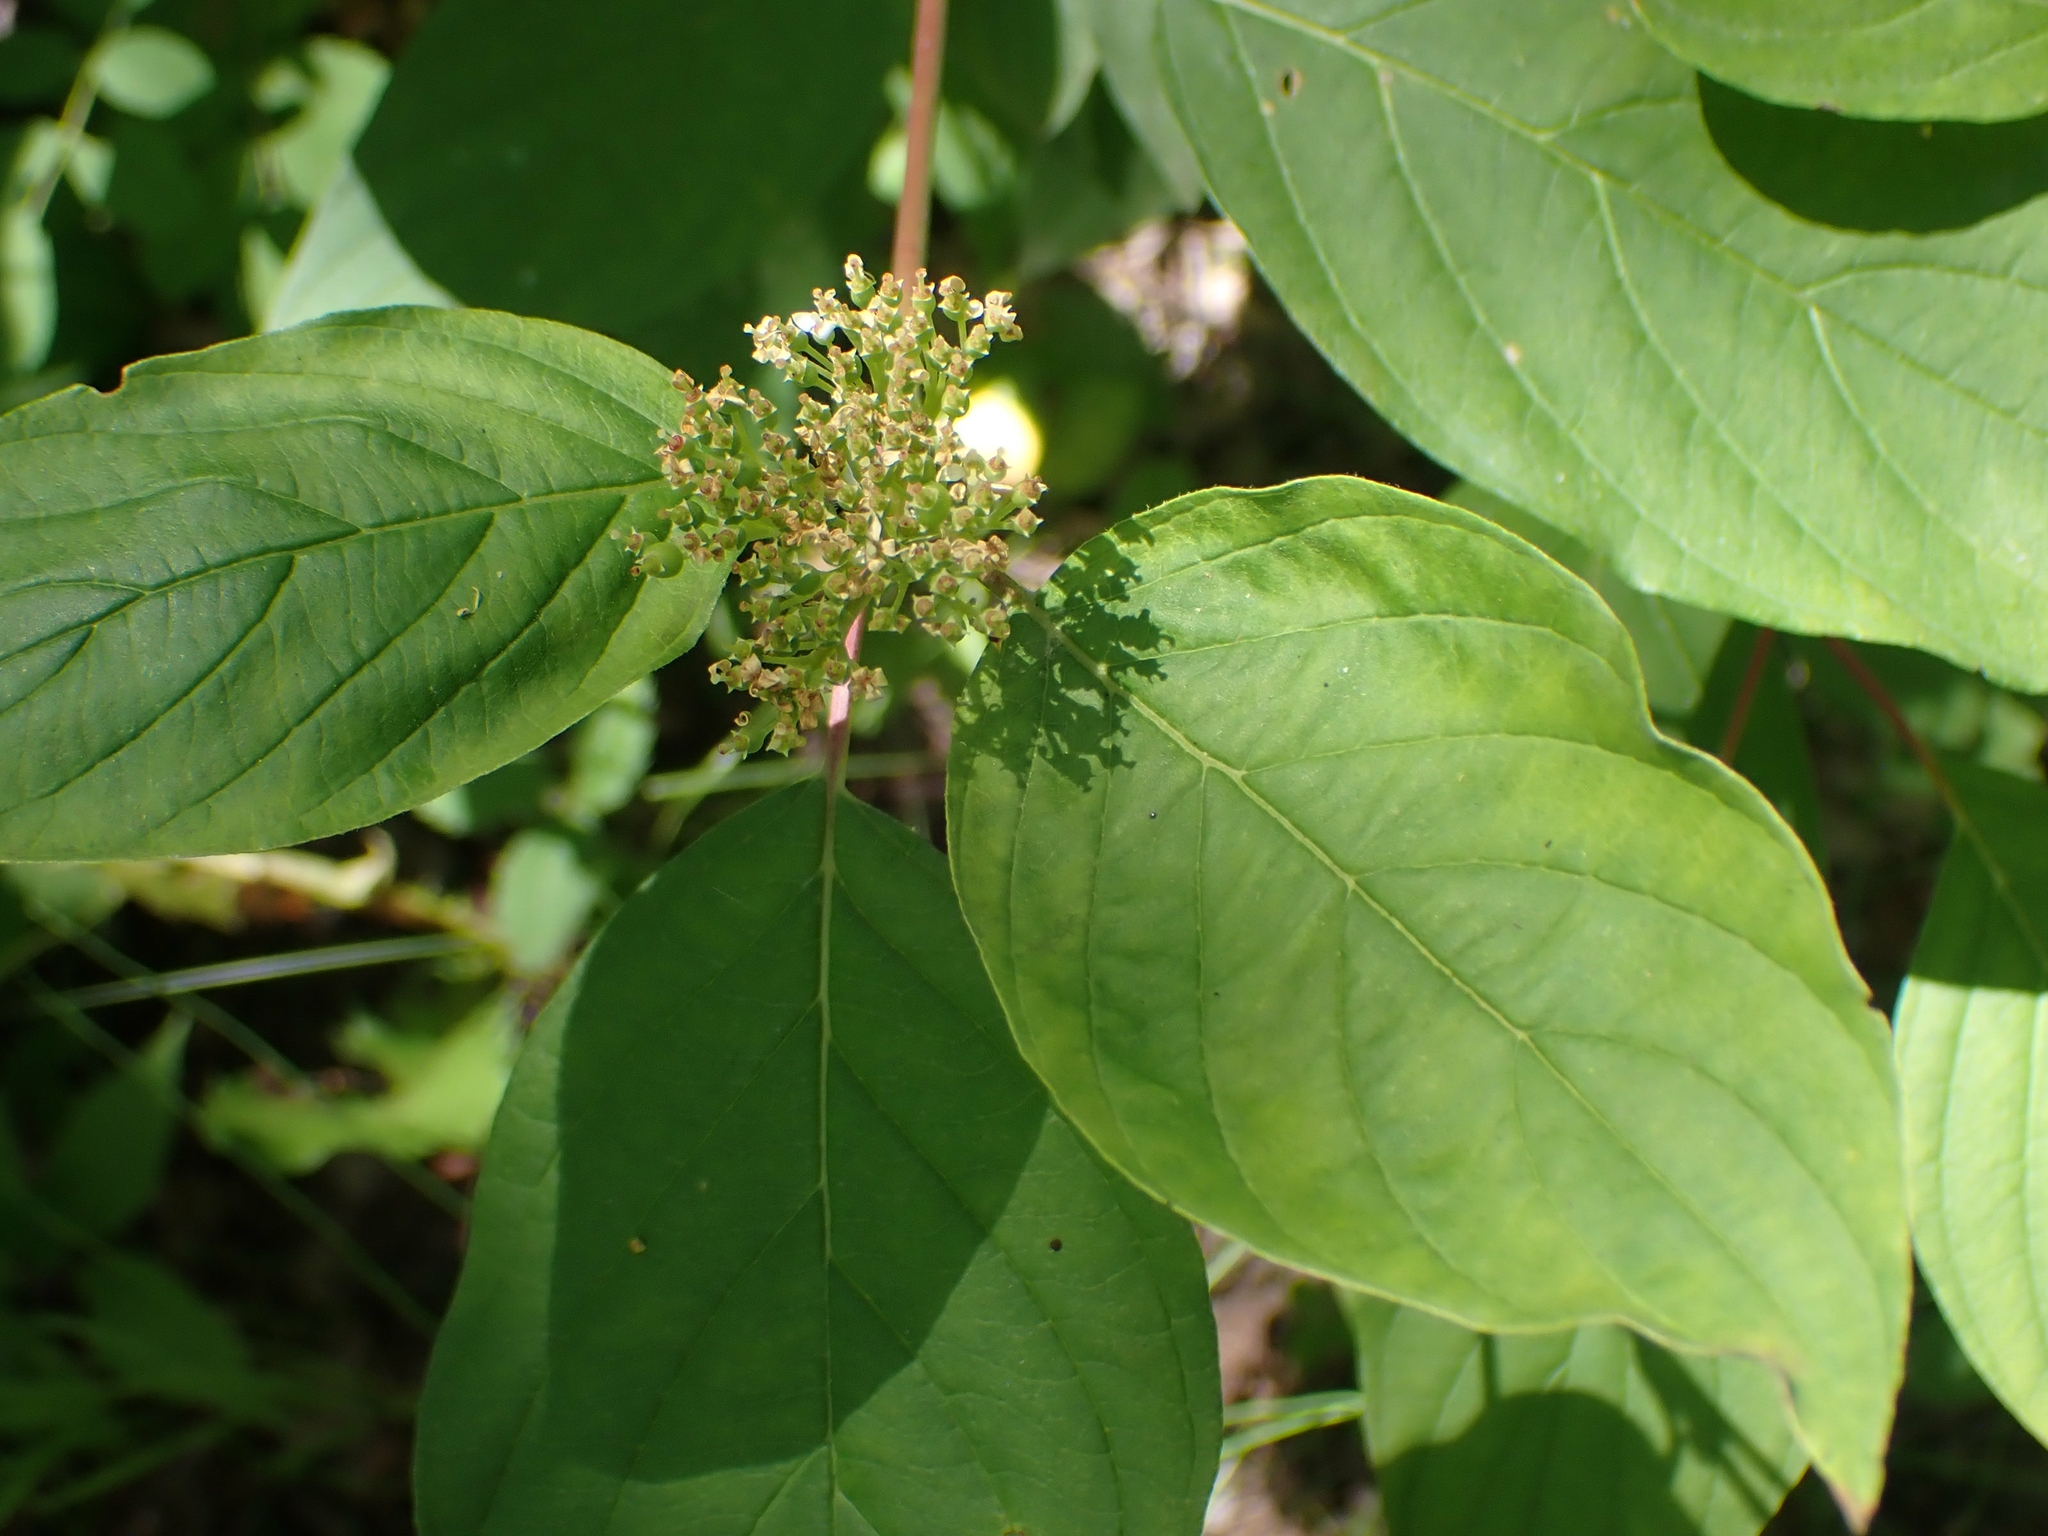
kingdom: Plantae
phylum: Tracheophyta
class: Magnoliopsida
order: Cornales
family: Cornaceae
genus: Cornus
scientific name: Cornus sericea
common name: Red-osier dogwood
